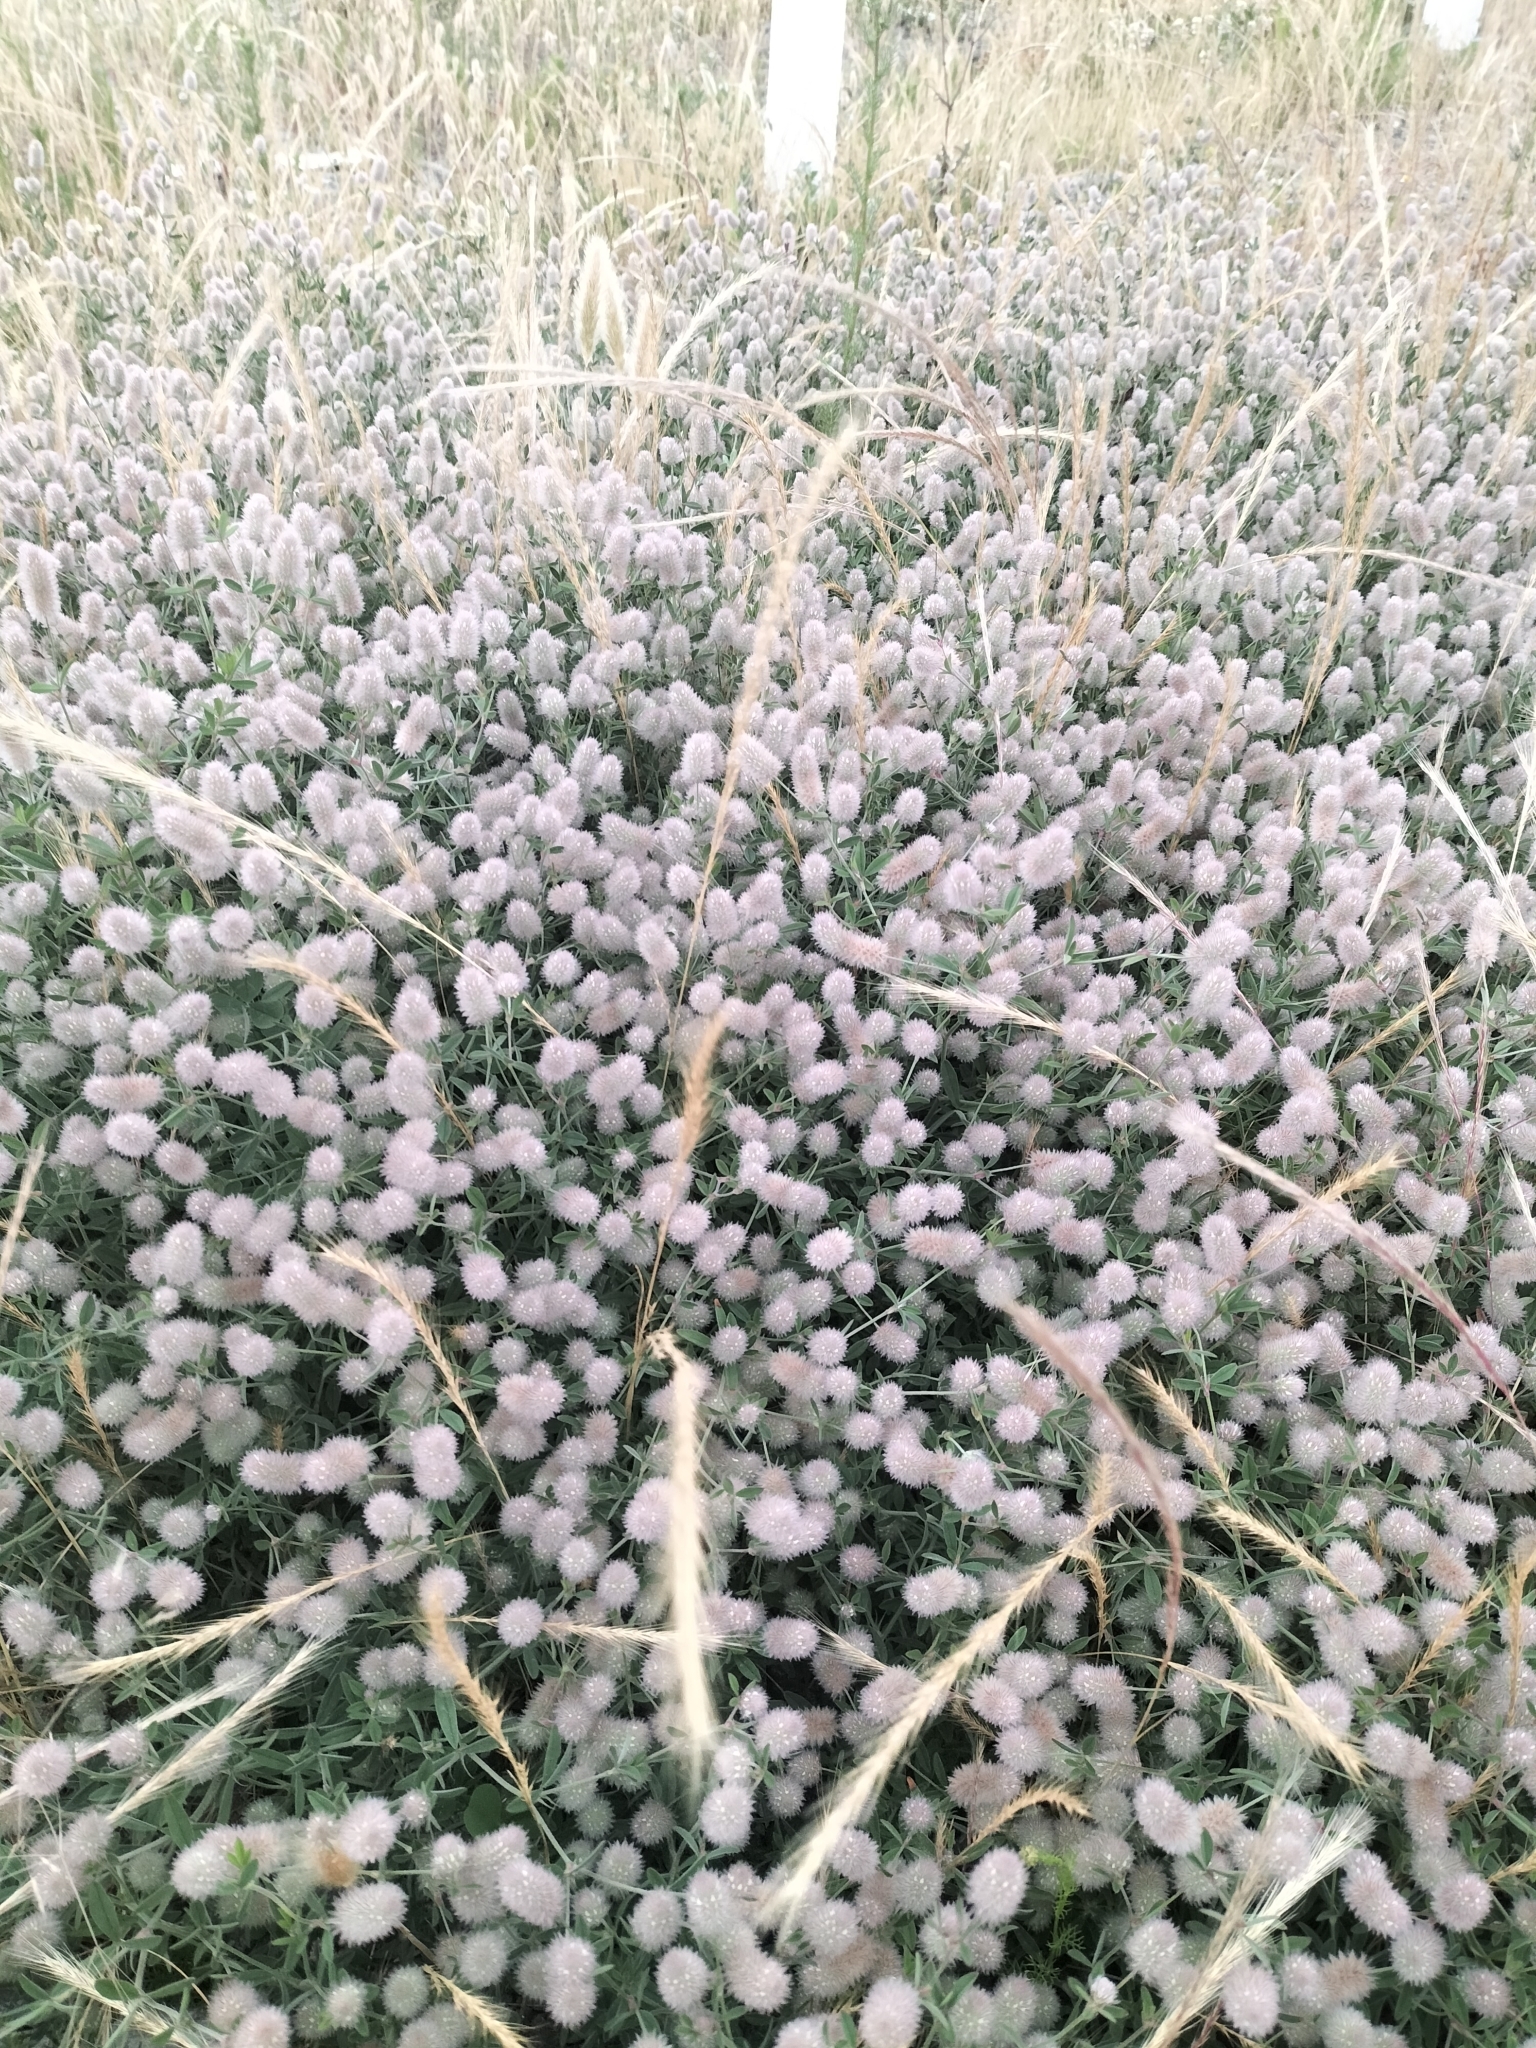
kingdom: Plantae
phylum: Tracheophyta
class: Magnoliopsida
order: Fabales
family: Fabaceae
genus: Trifolium
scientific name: Trifolium arvense
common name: Hare's-foot clover
